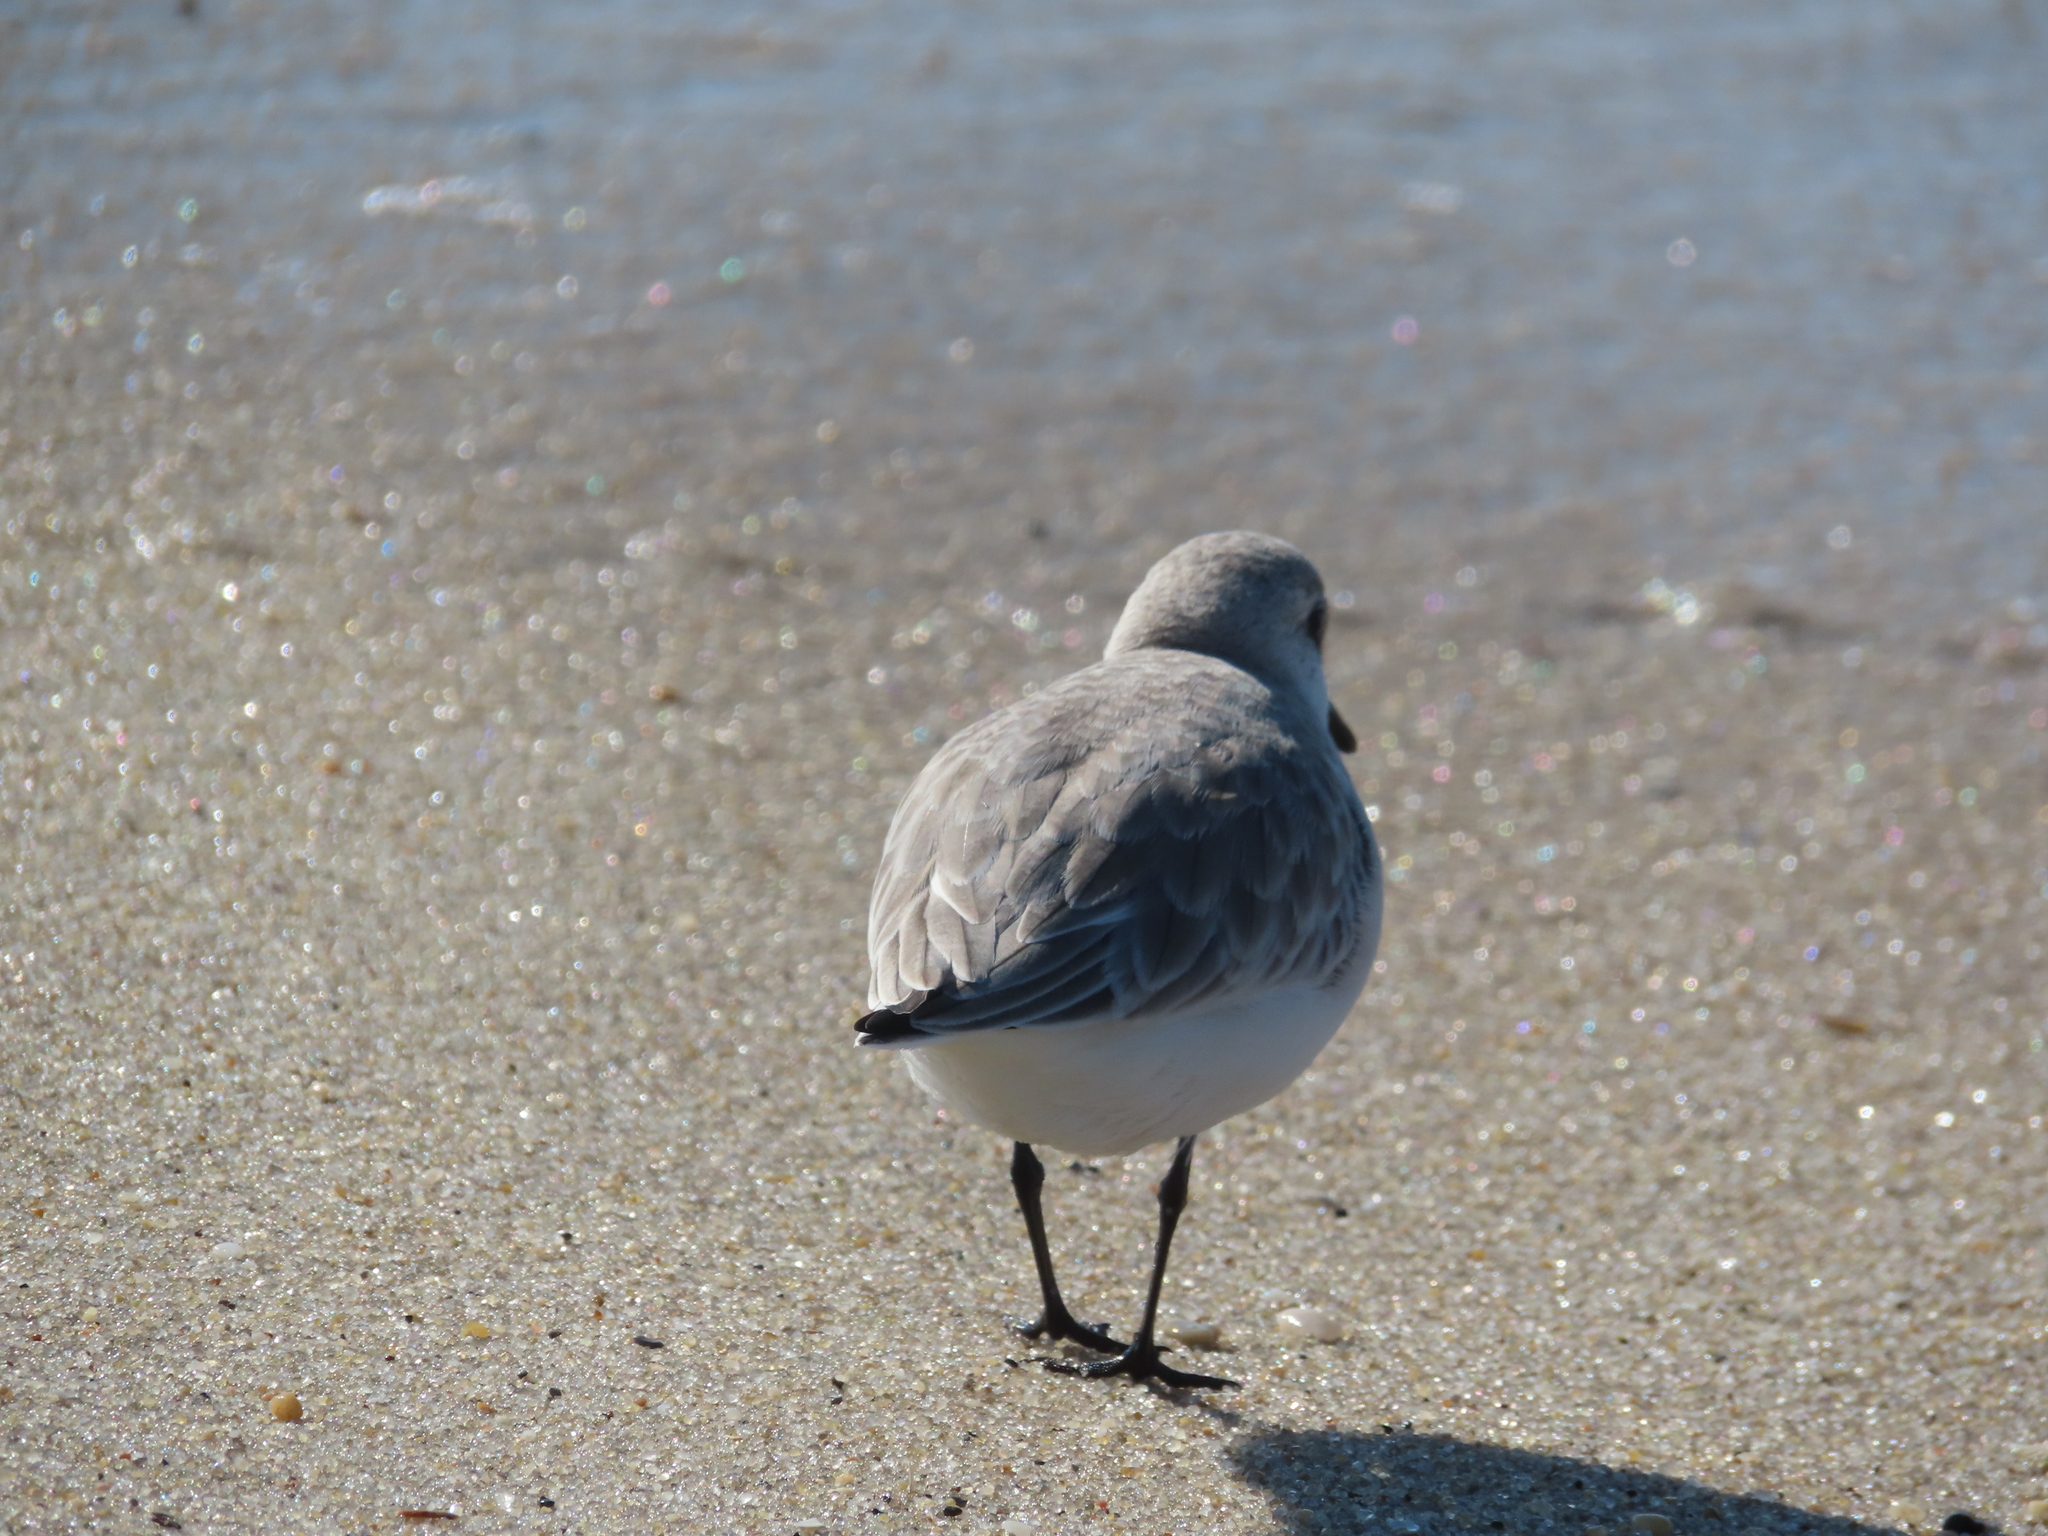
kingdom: Animalia
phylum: Chordata
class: Aves
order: Charadriiformes
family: Scolopacidae
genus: Calidris
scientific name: Calidris alba
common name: Sanderling
